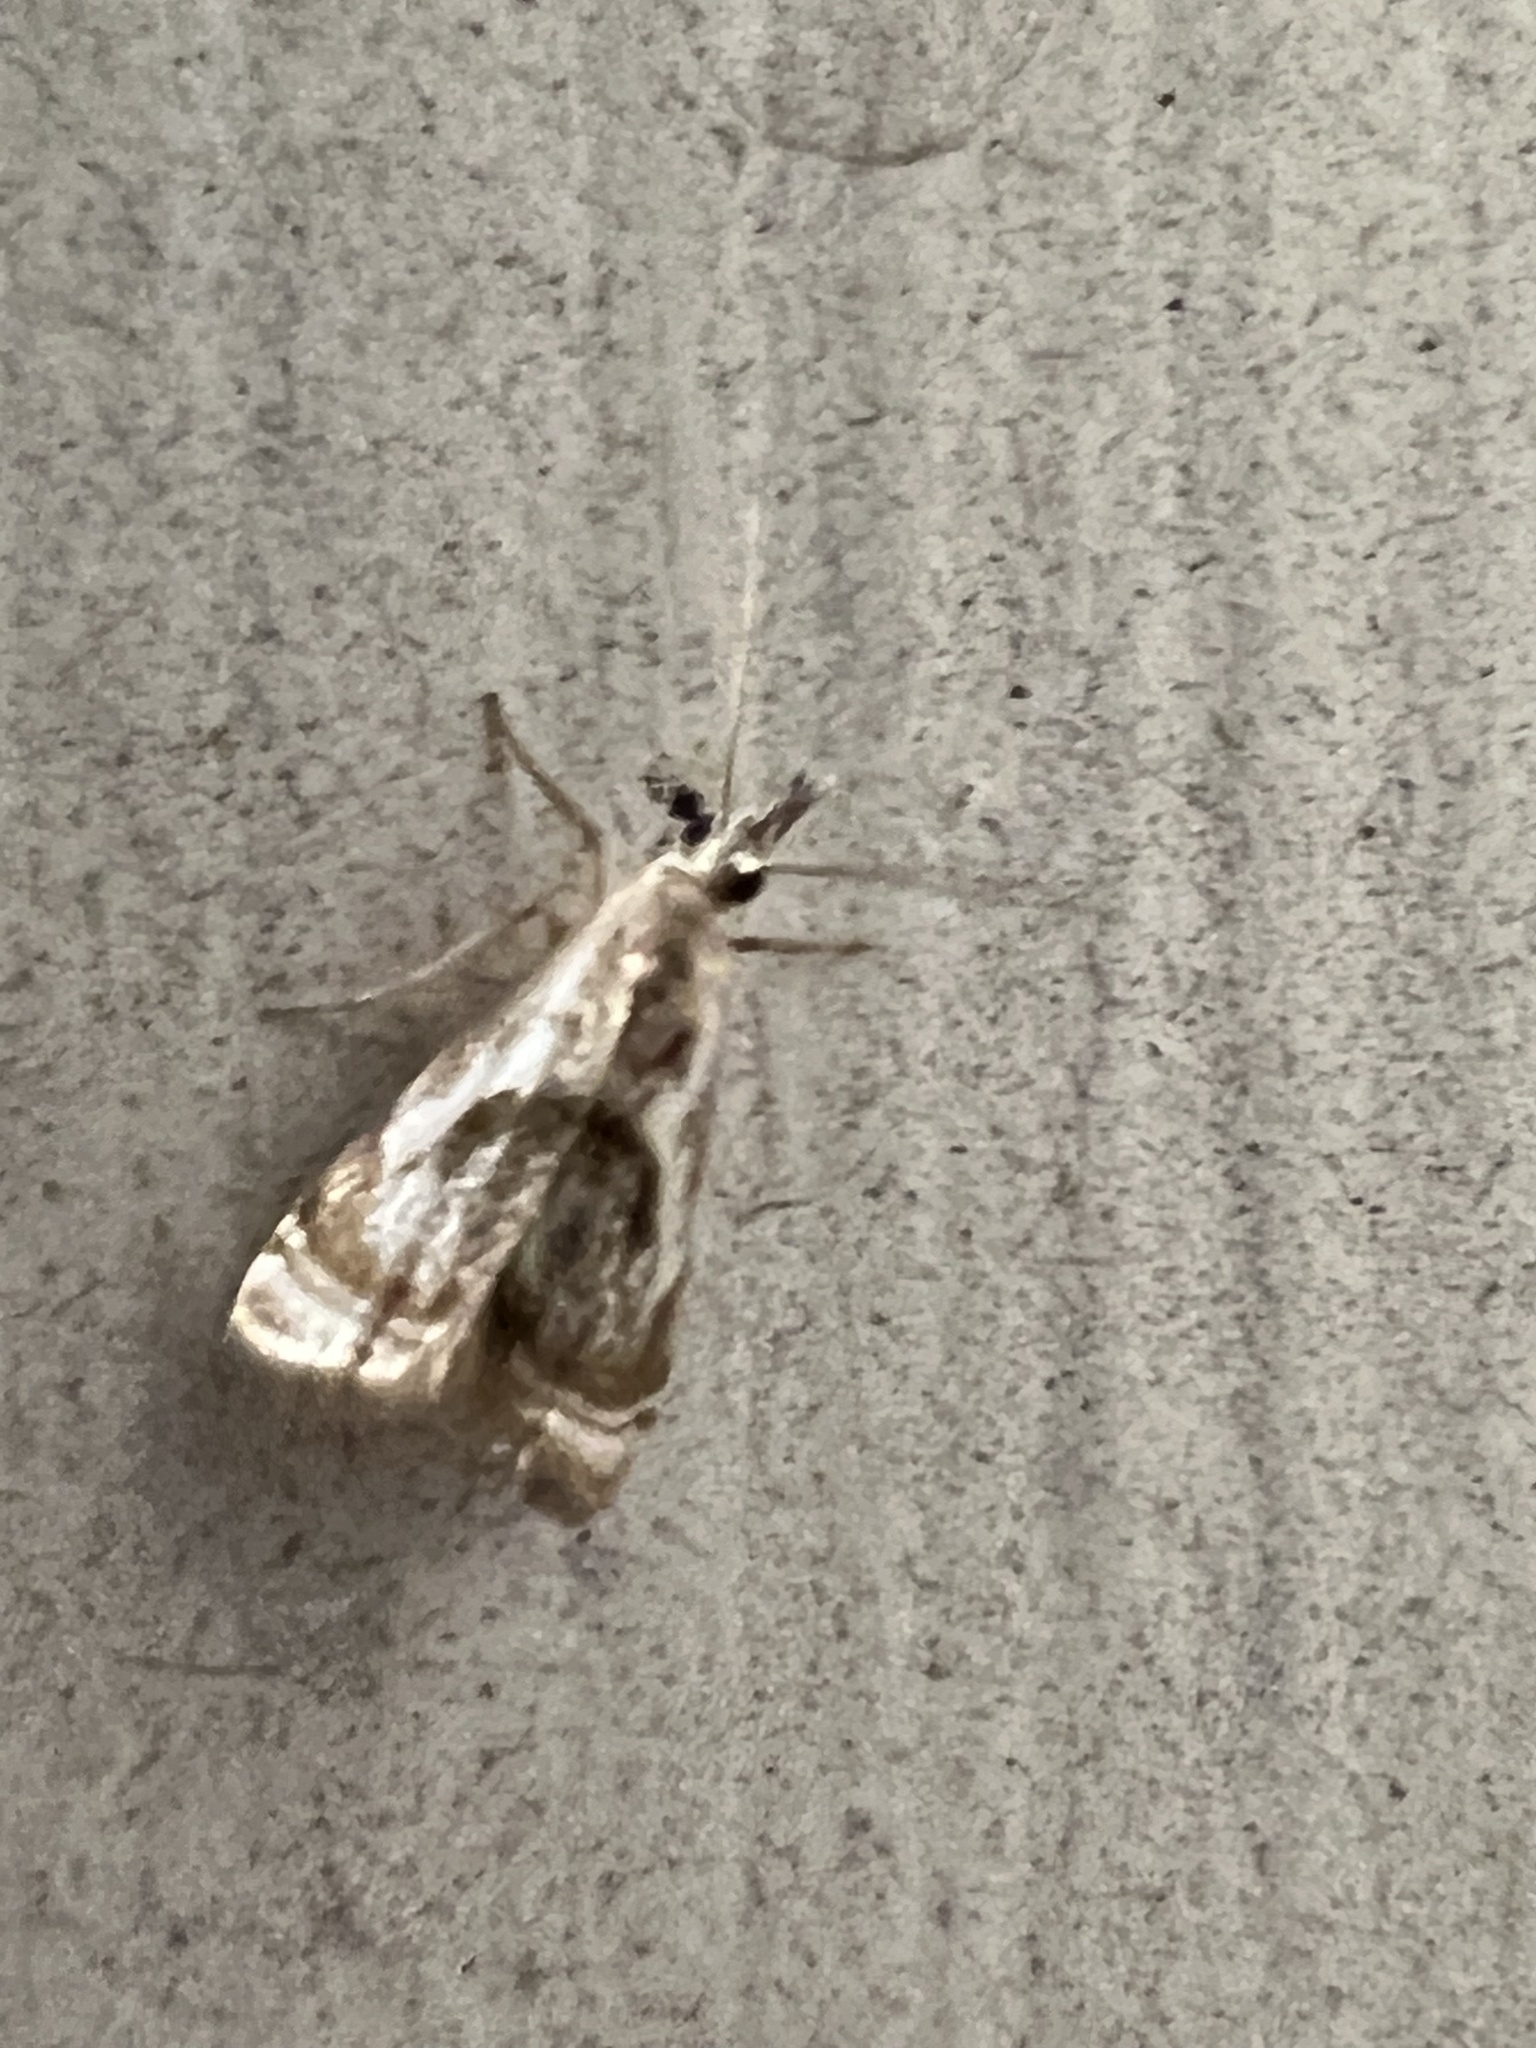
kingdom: Animalia
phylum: Arthropoda
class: Insecta
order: Lepidoptera
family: Crambidae
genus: Microcrambus
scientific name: Microcrambus elegans
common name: Elegant grass-veneer
